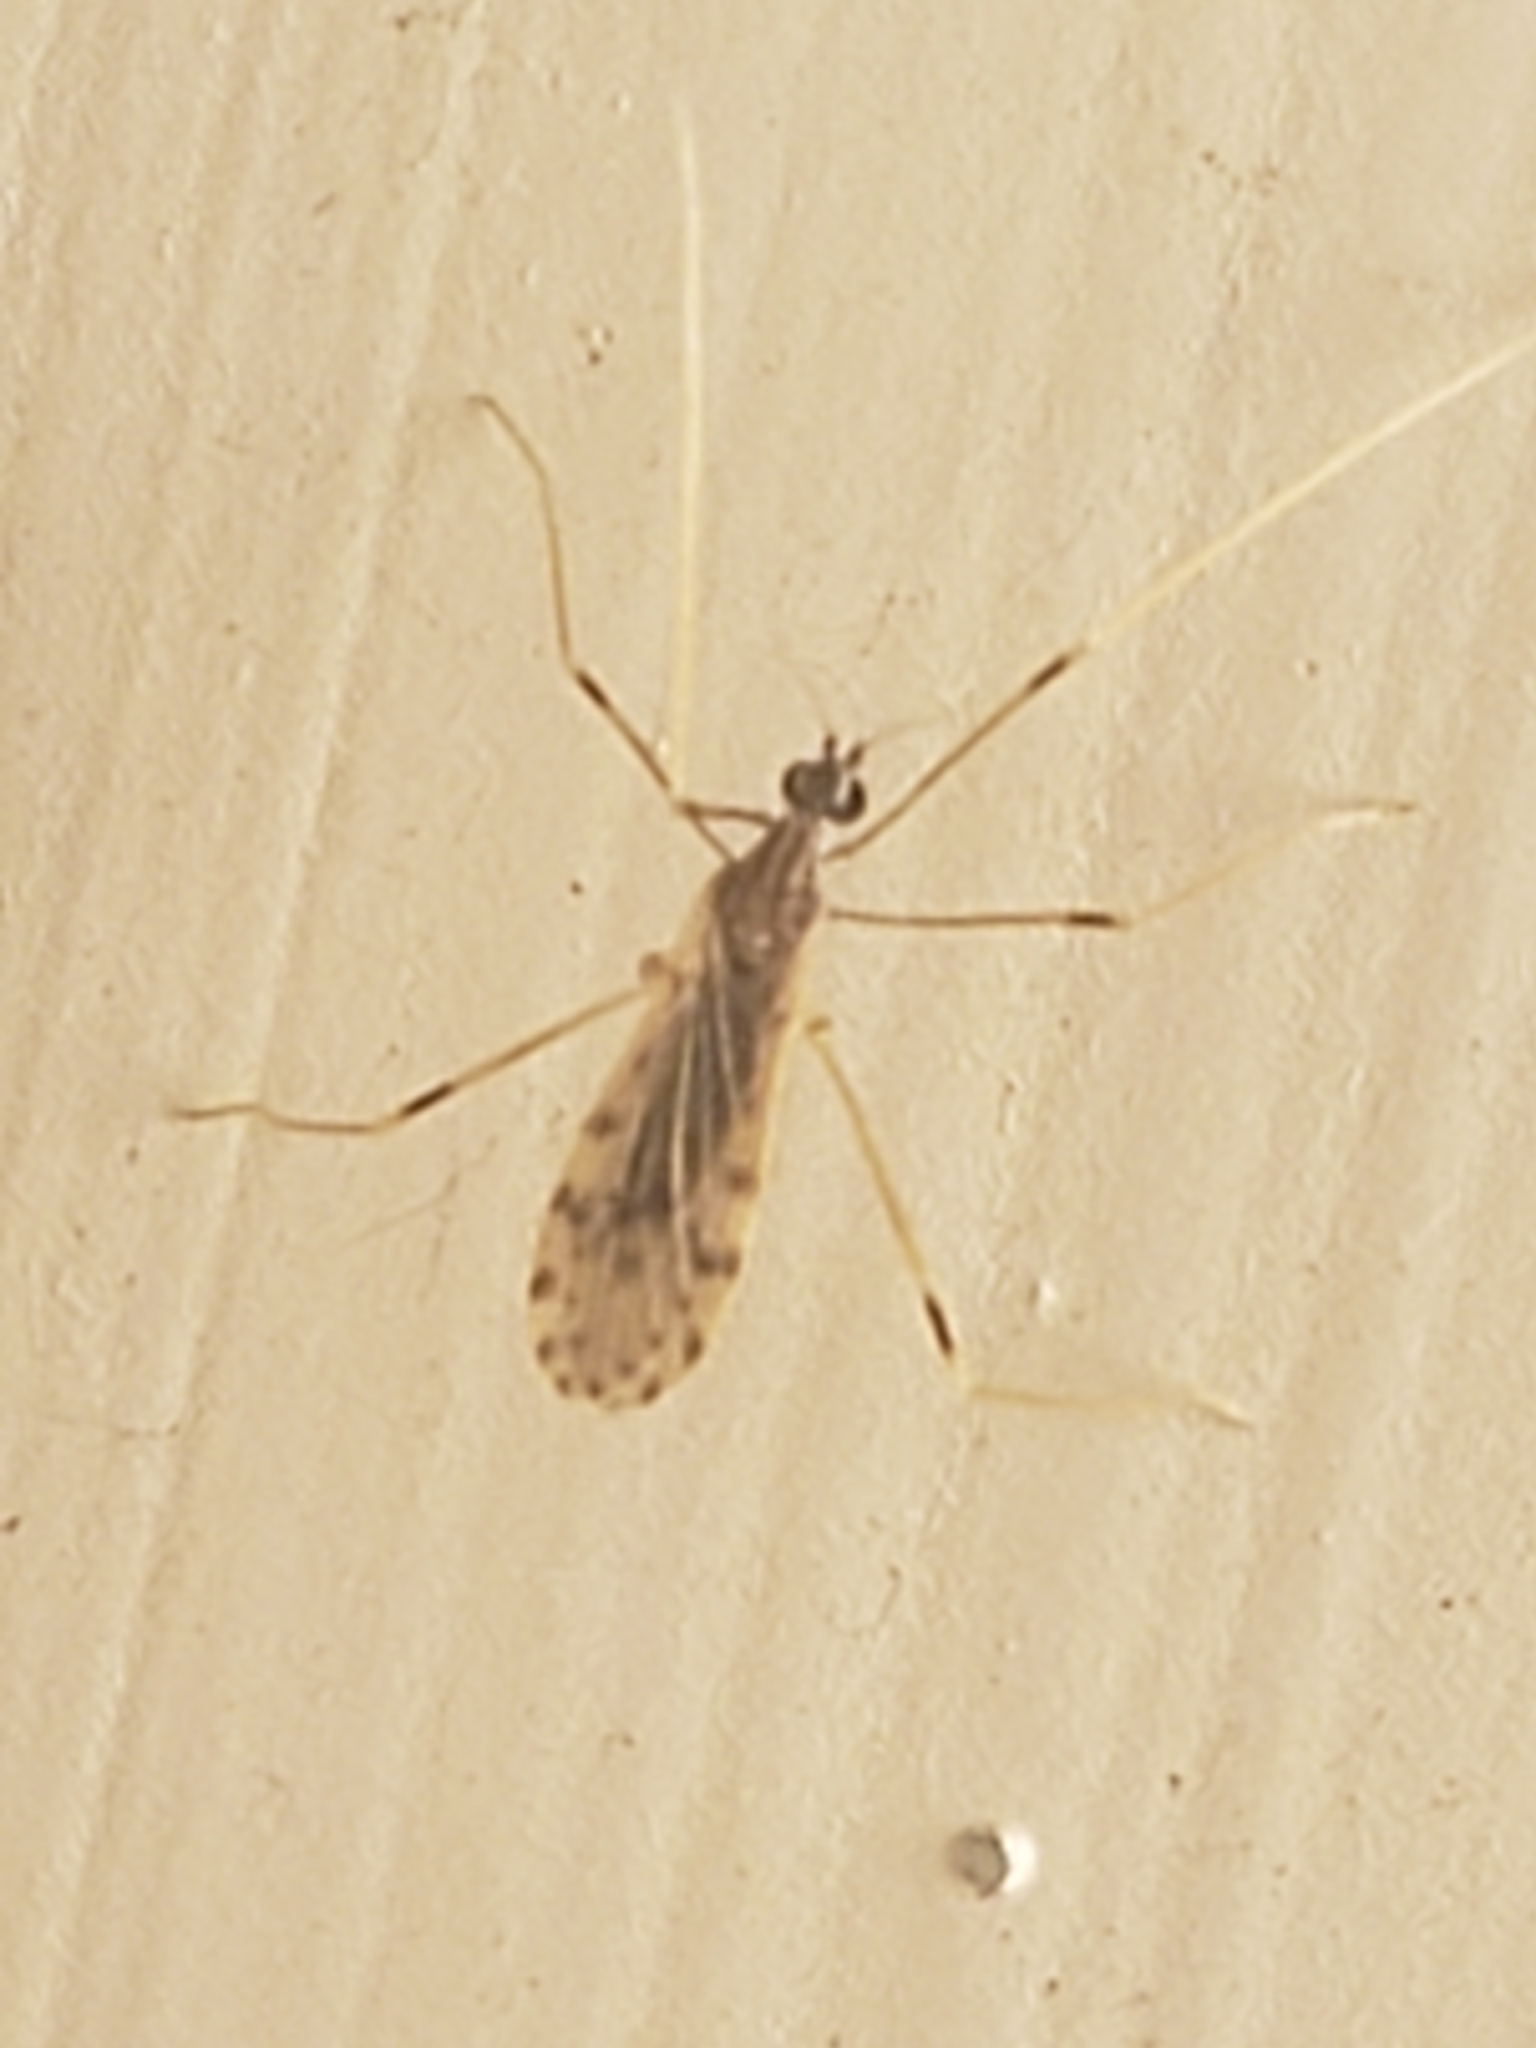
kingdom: Animalia
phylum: Arthropoda
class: Insecta
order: Diptera
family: Limoniidae
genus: Erioptera
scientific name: Erioptera parva
